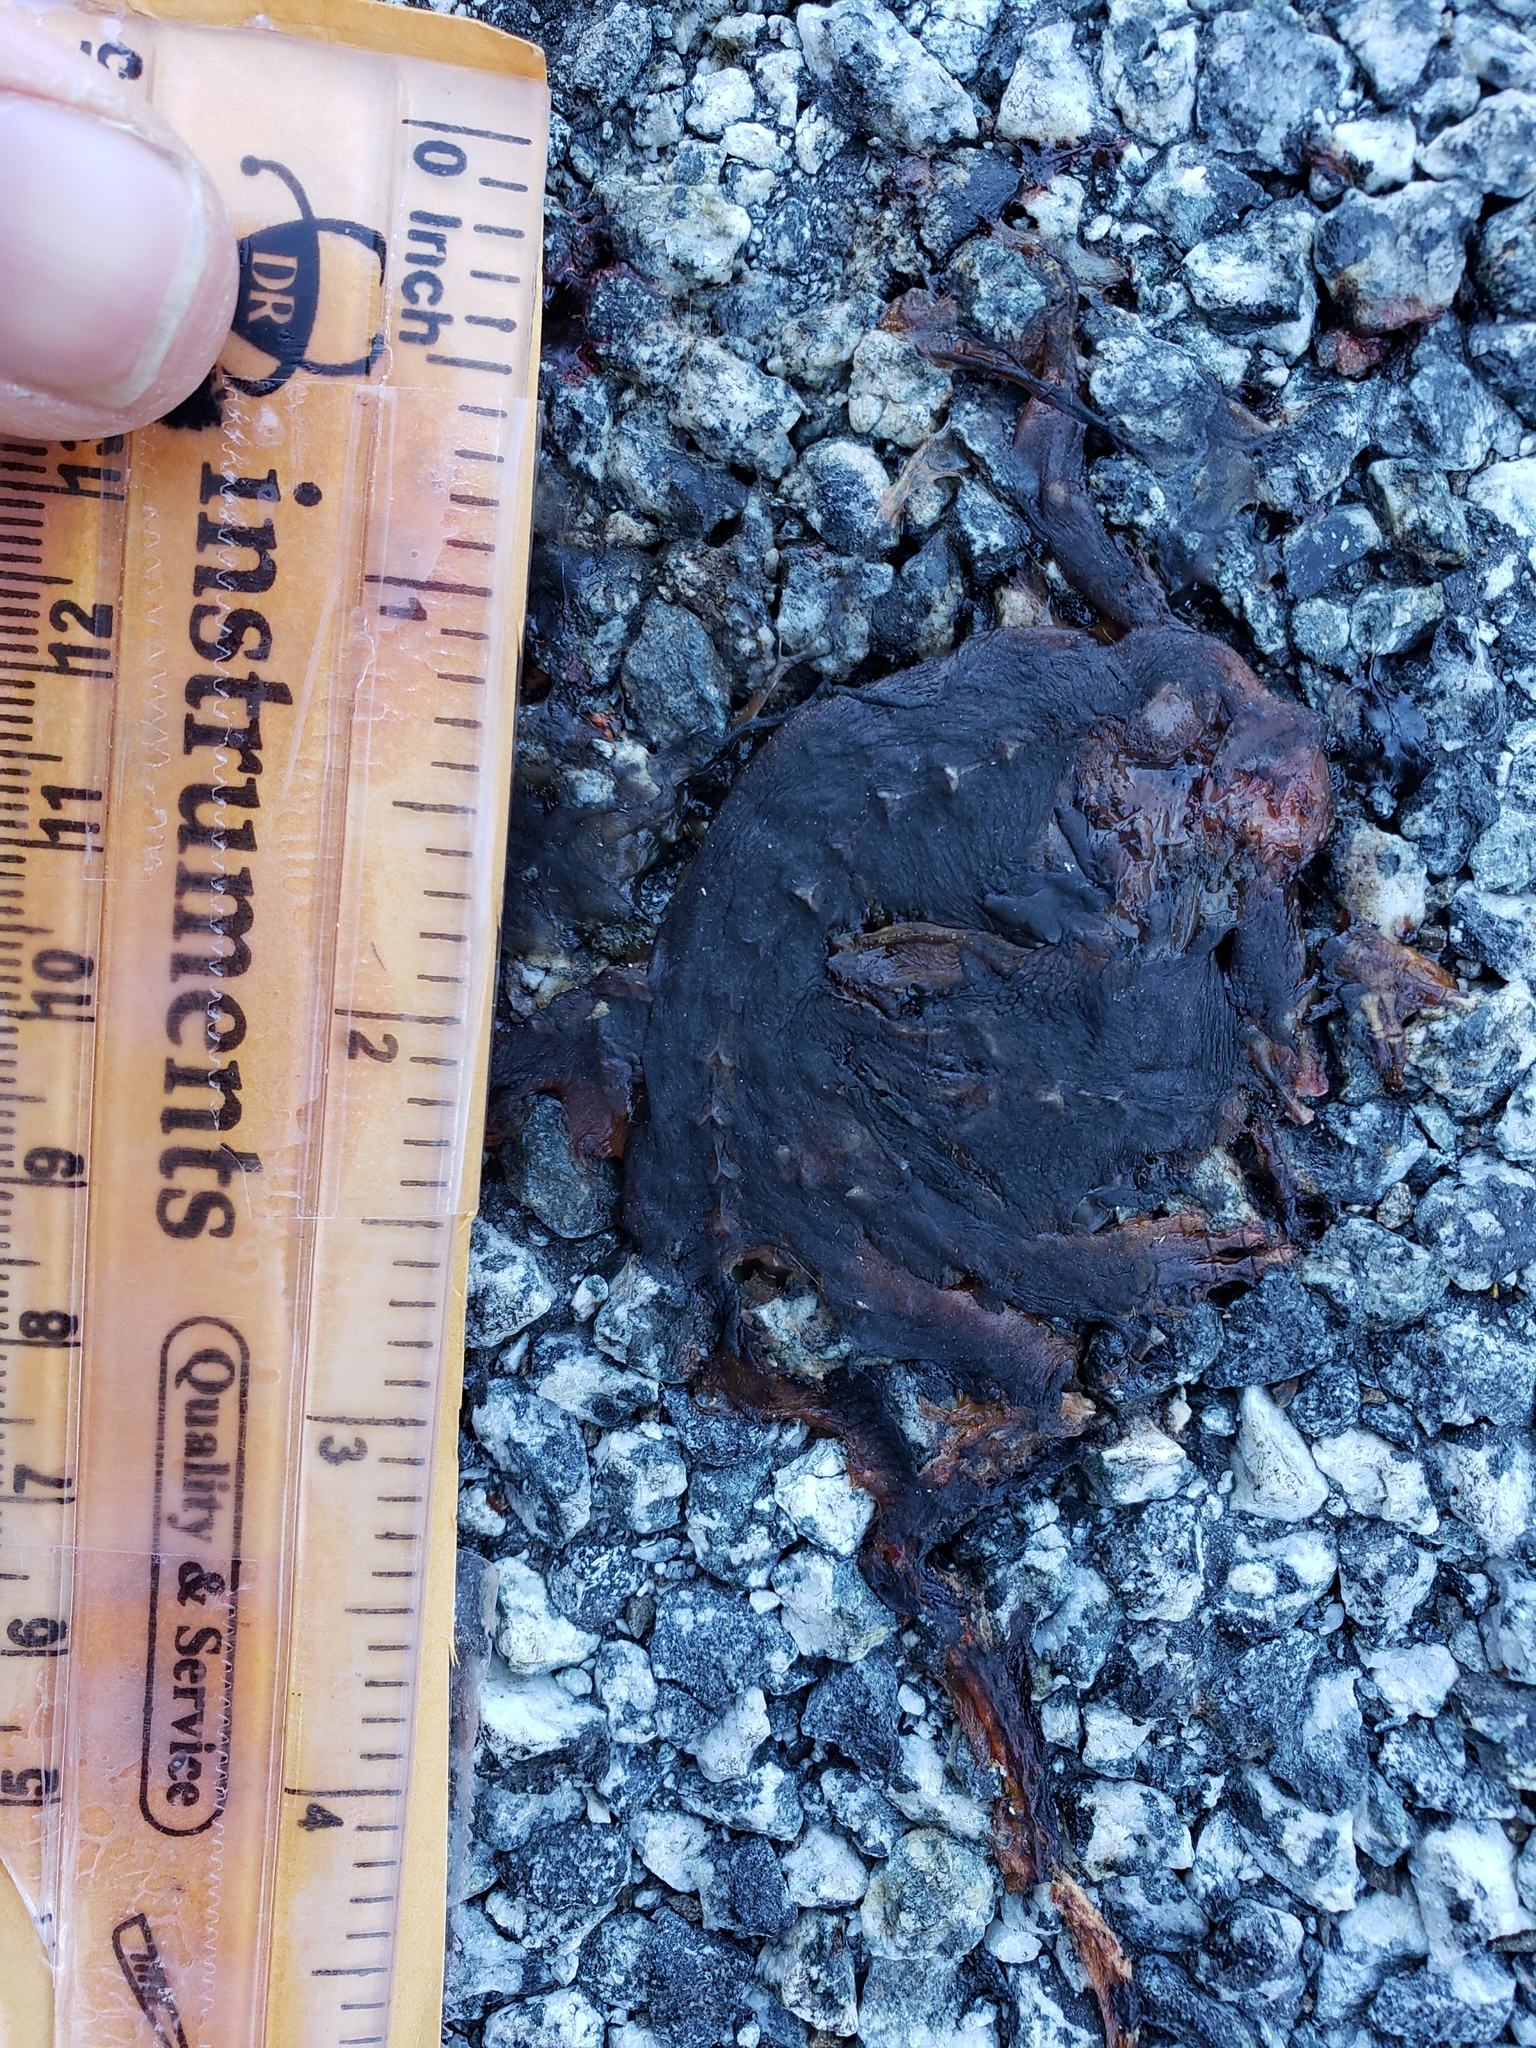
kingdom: Animalia
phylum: Chordata
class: Amphibia
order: Caudata
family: Salamandridae
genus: Taricha
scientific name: Taricha
